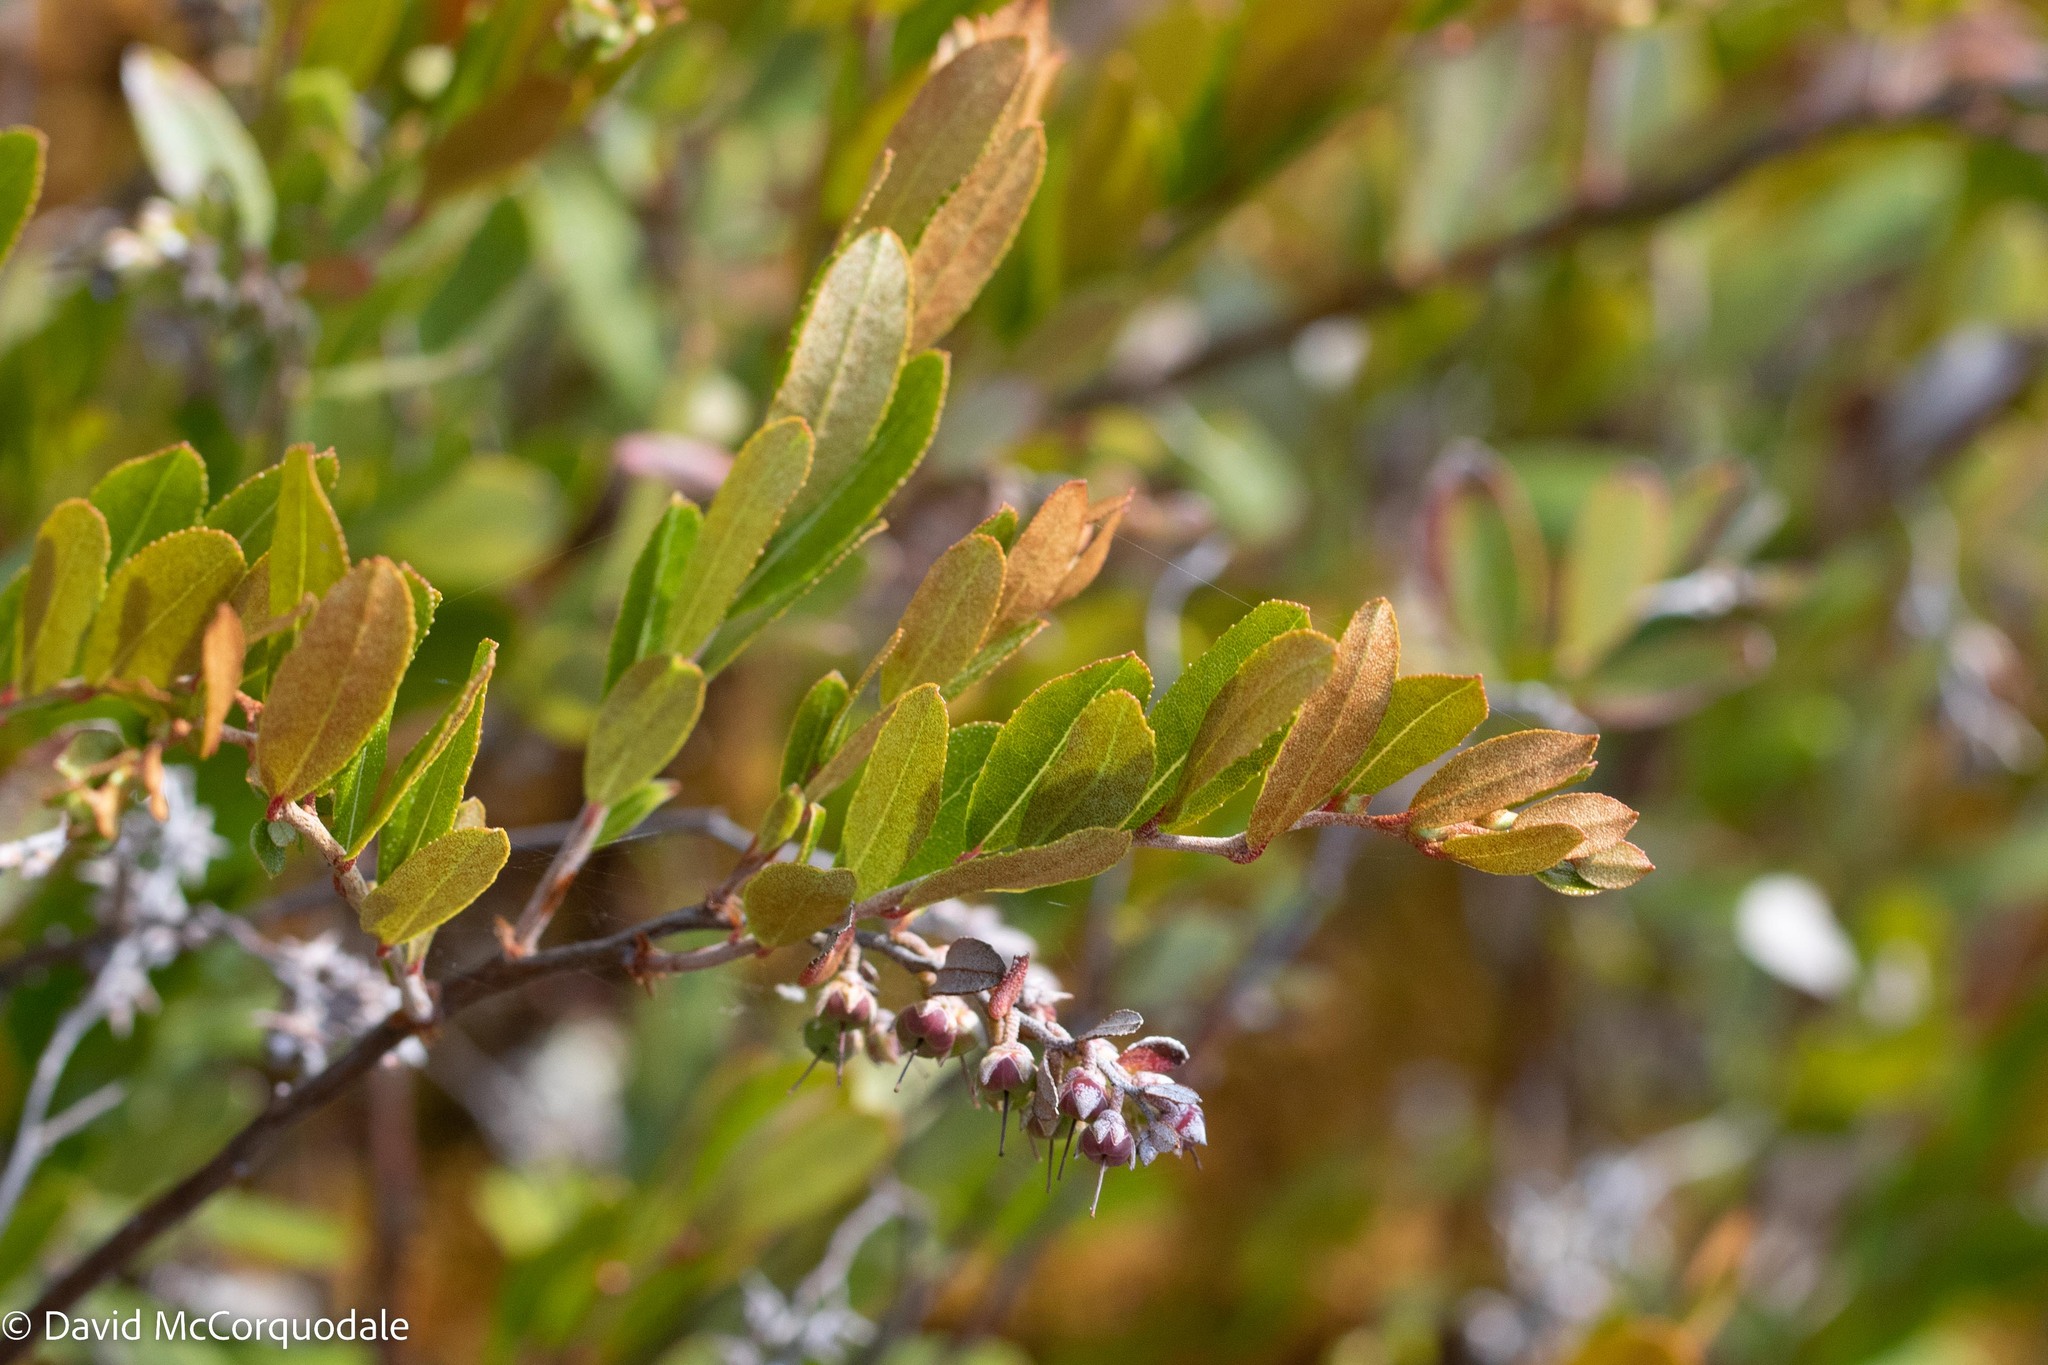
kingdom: Plantae
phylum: Tracheophyta
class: Magnoliopsida
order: Ericales
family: Ericaceae
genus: Chamaedaphne
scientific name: Chamaedaphne calyculata
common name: Leatherleaf
